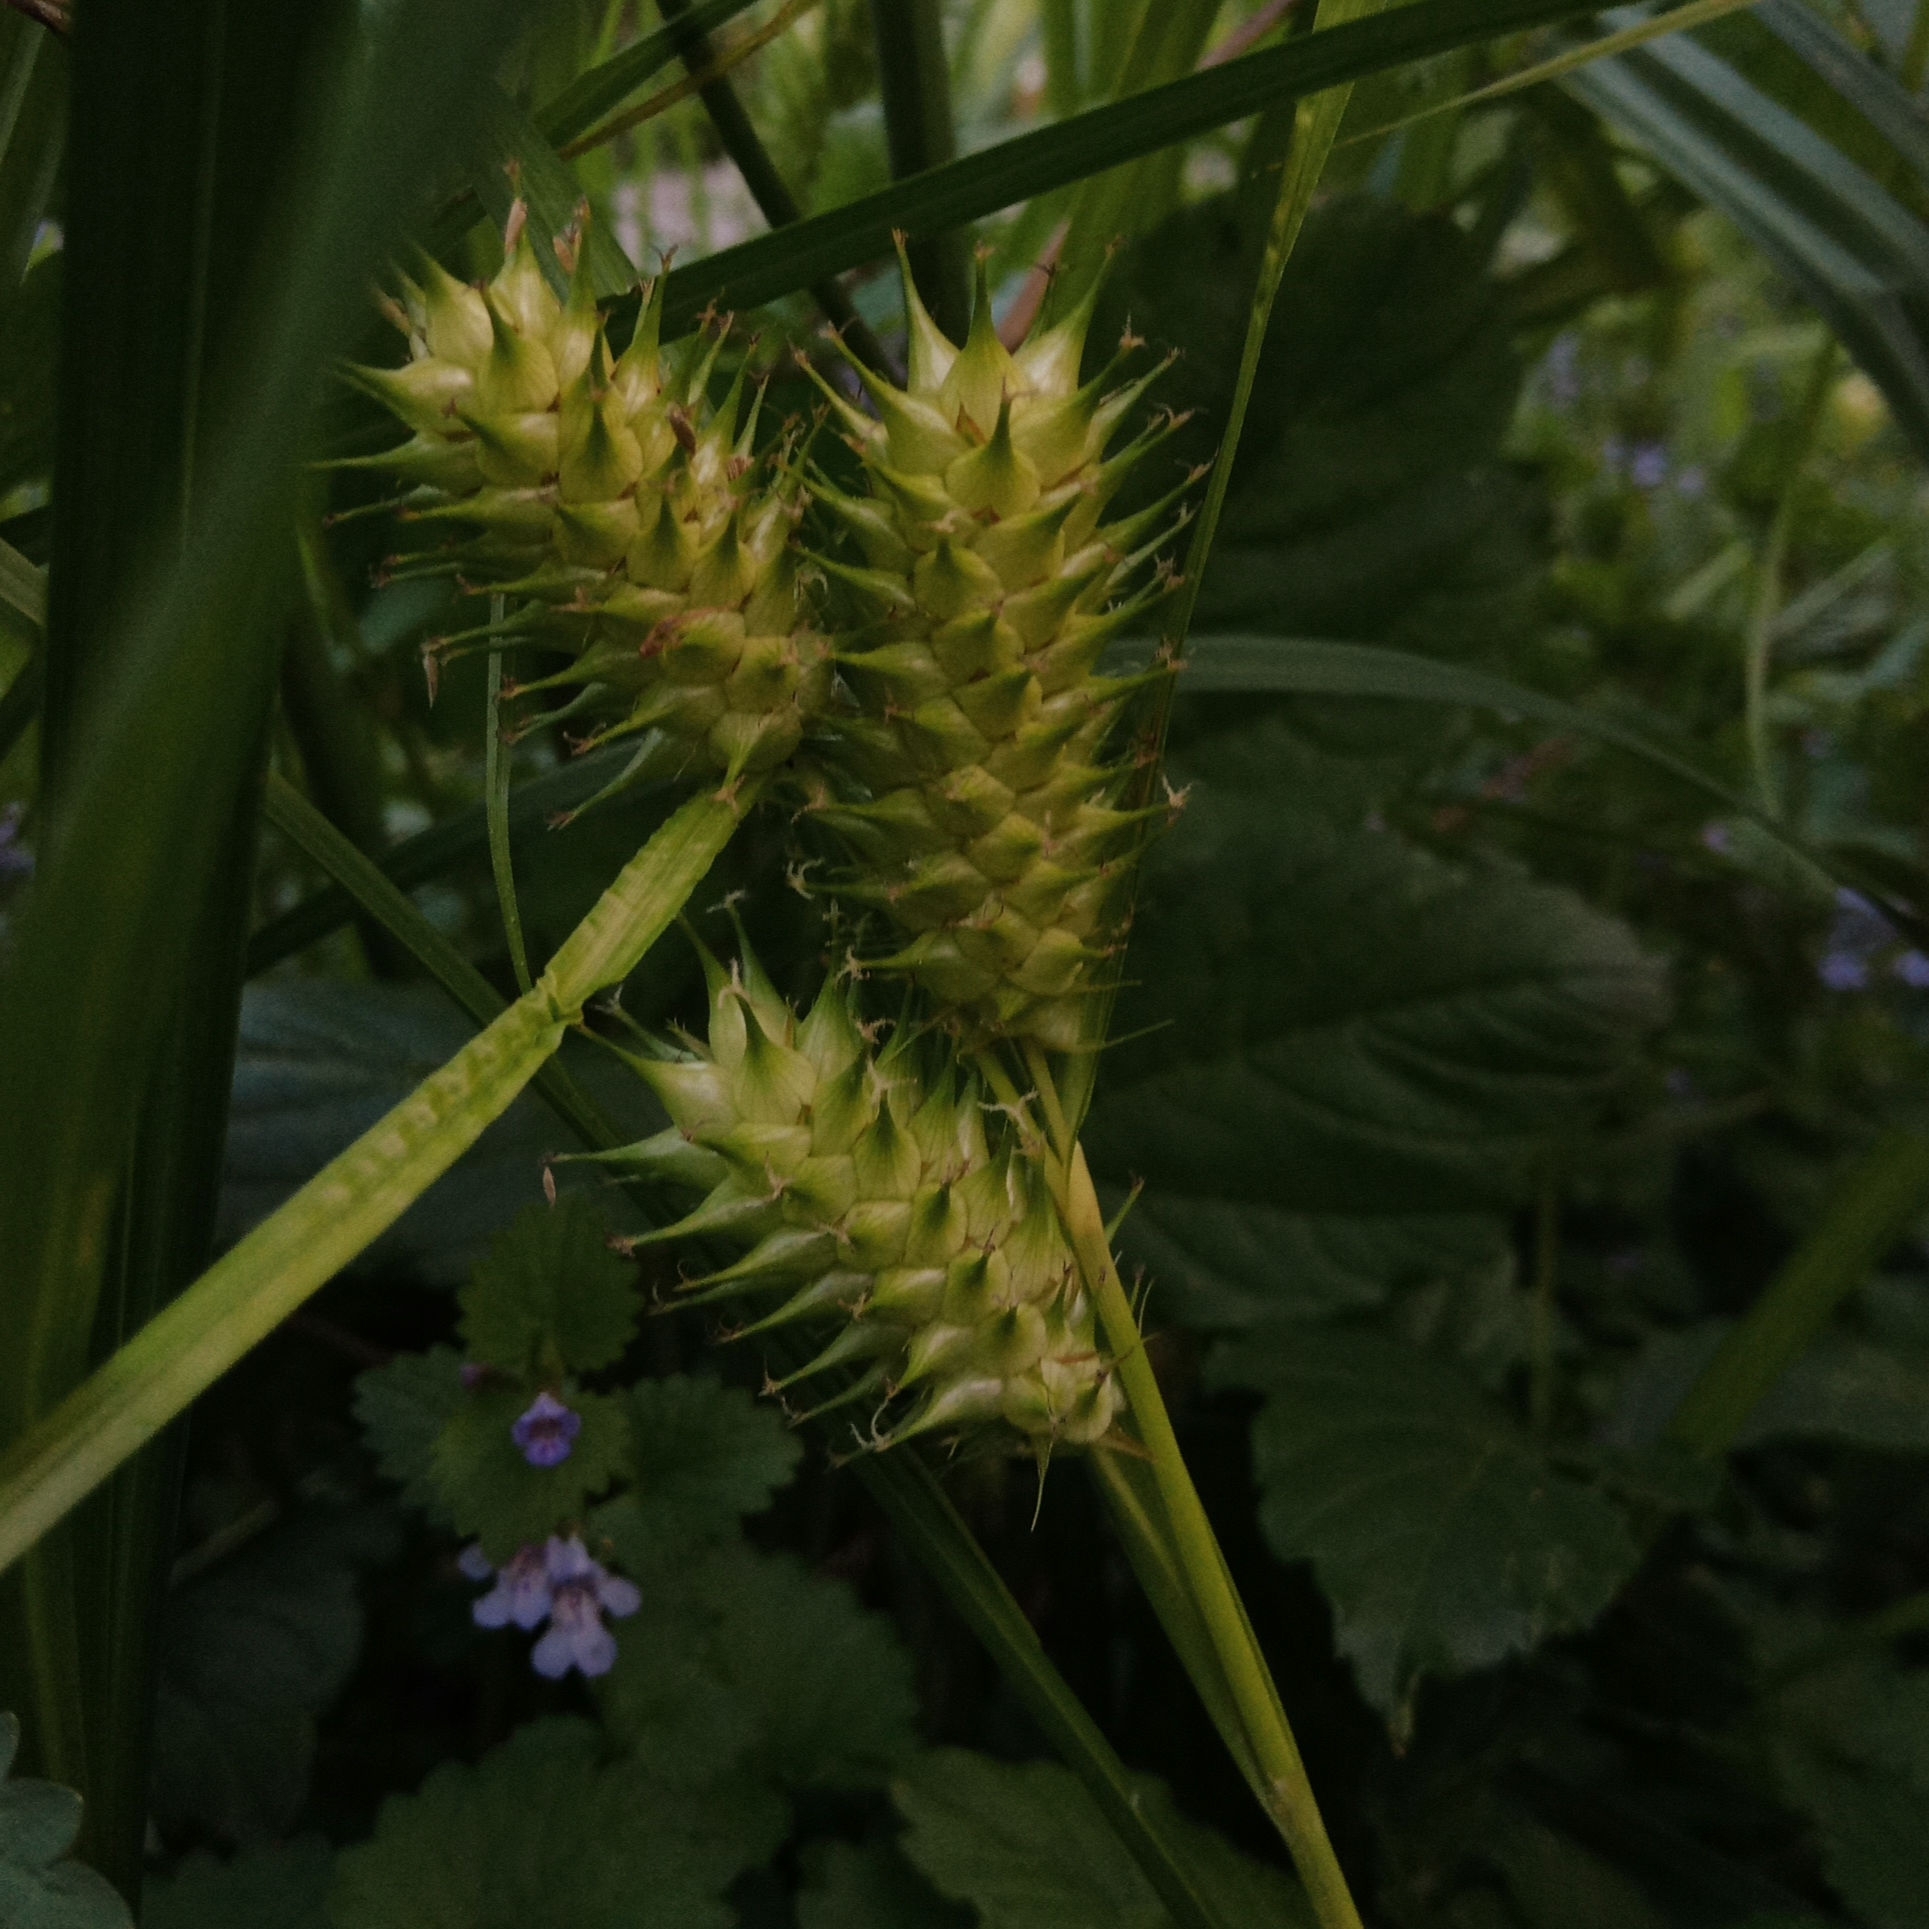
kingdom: Plantae
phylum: Tracheophyta
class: Liliopsida
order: Poales
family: Cyperaceae
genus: Carex
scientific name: Carex lupulina
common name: Hop sedge
